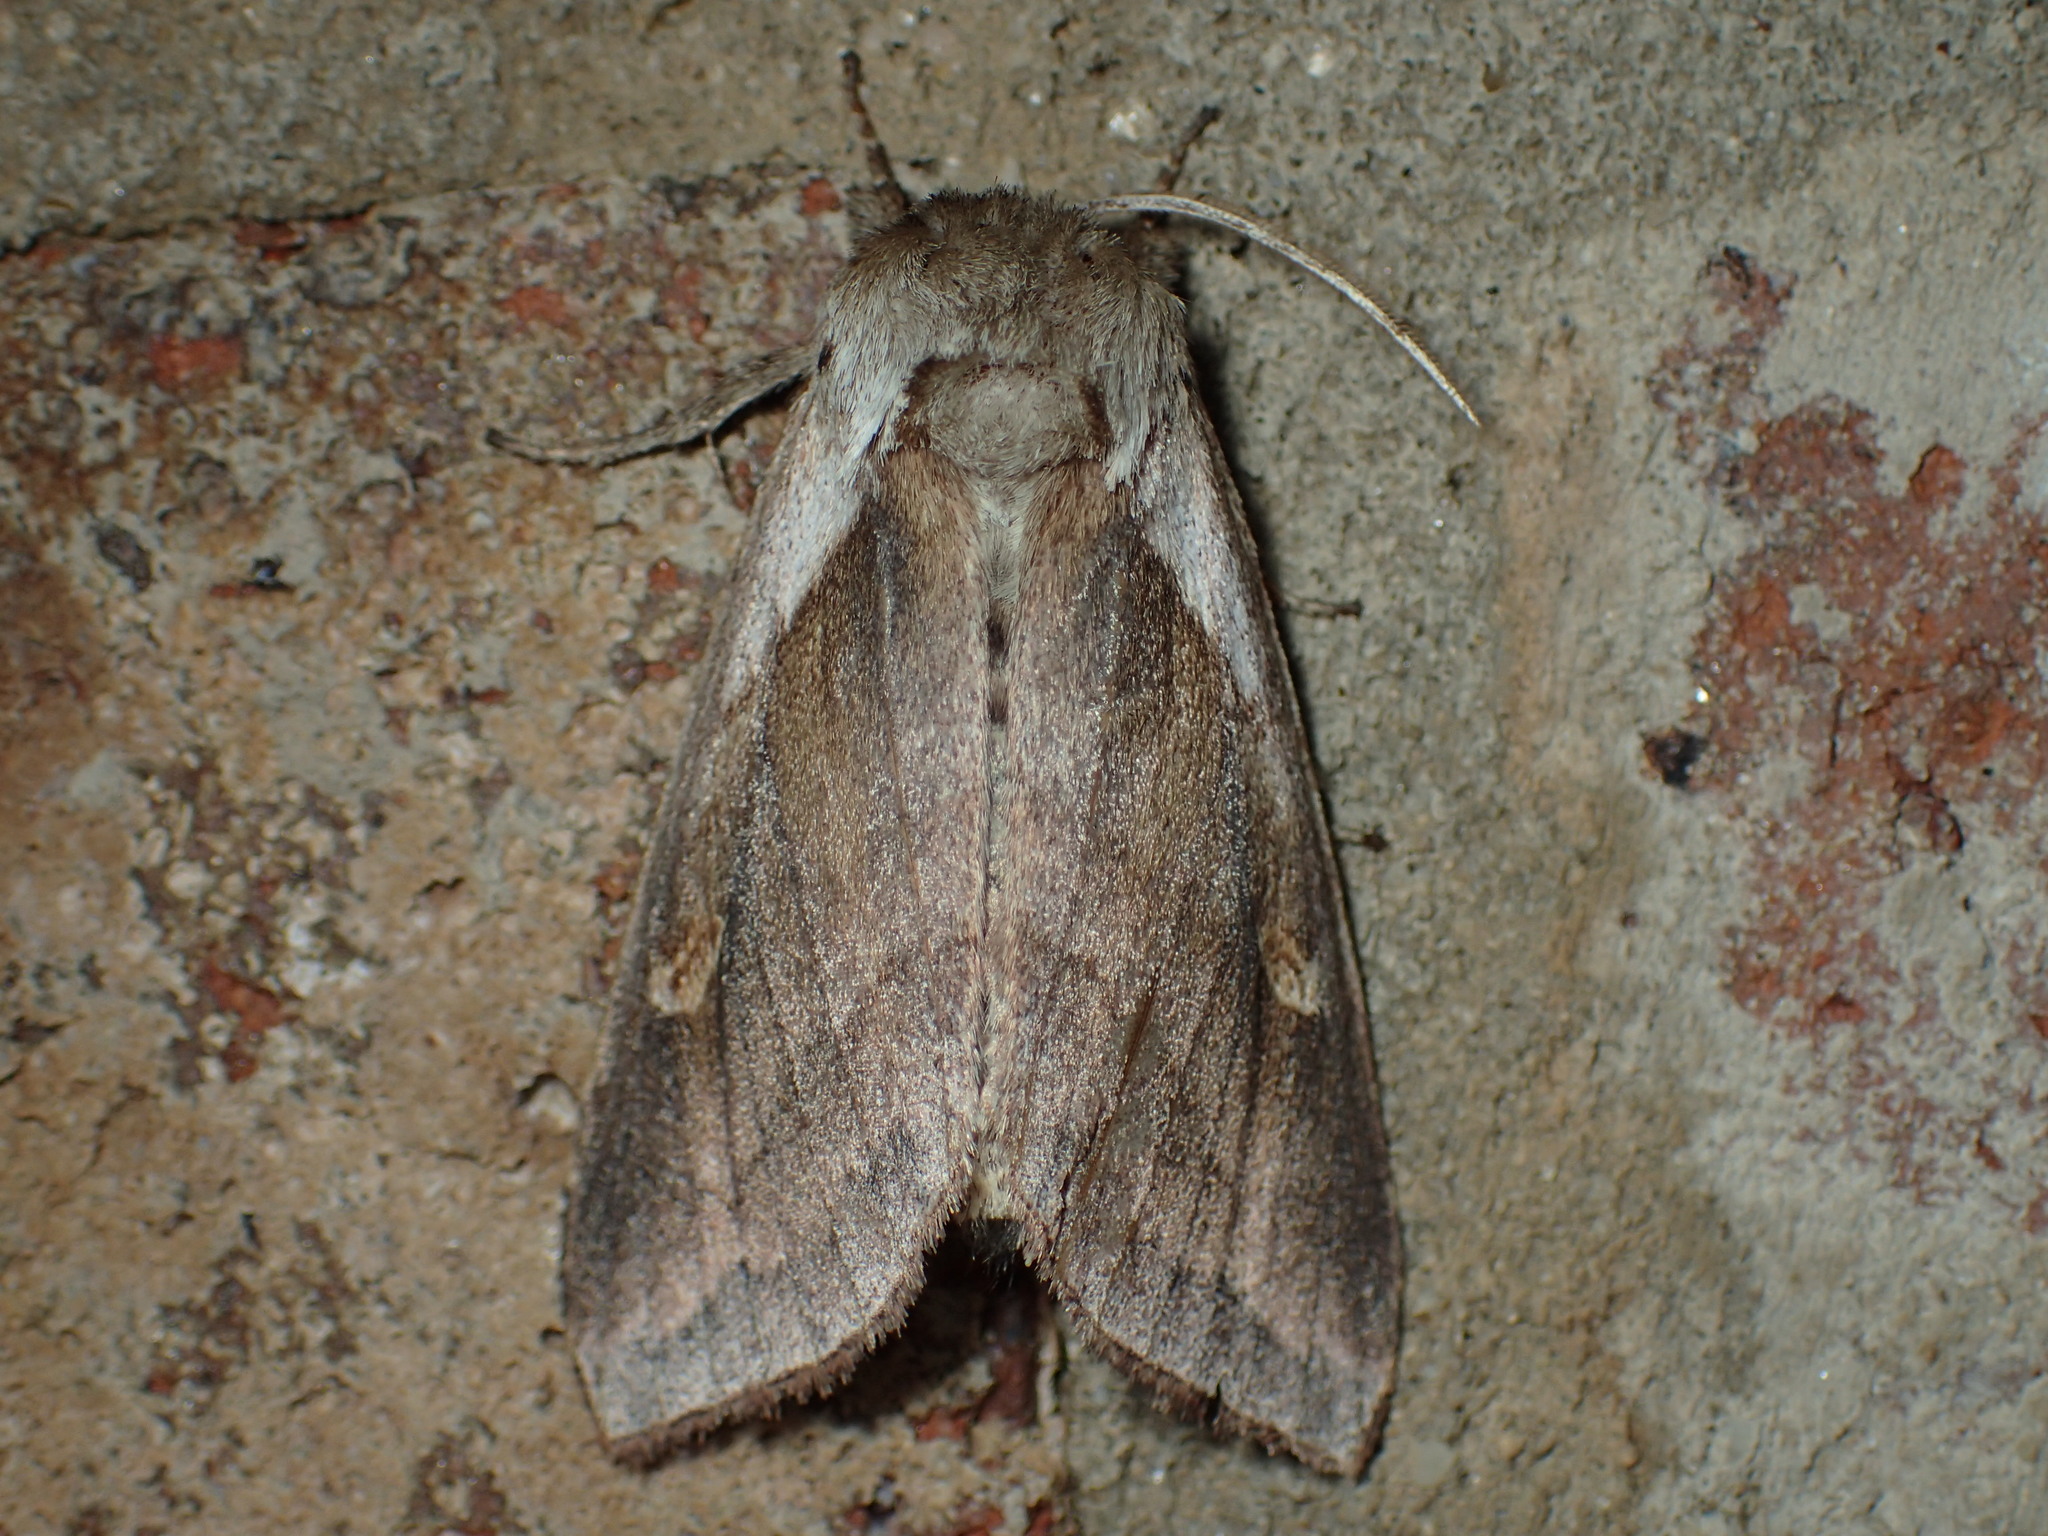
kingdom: Animalia
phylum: Arthropoda
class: Insecta
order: Lepidoptera
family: Noctuidae
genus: Bellura
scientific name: Bellura obliqua
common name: Cattail borer moth
